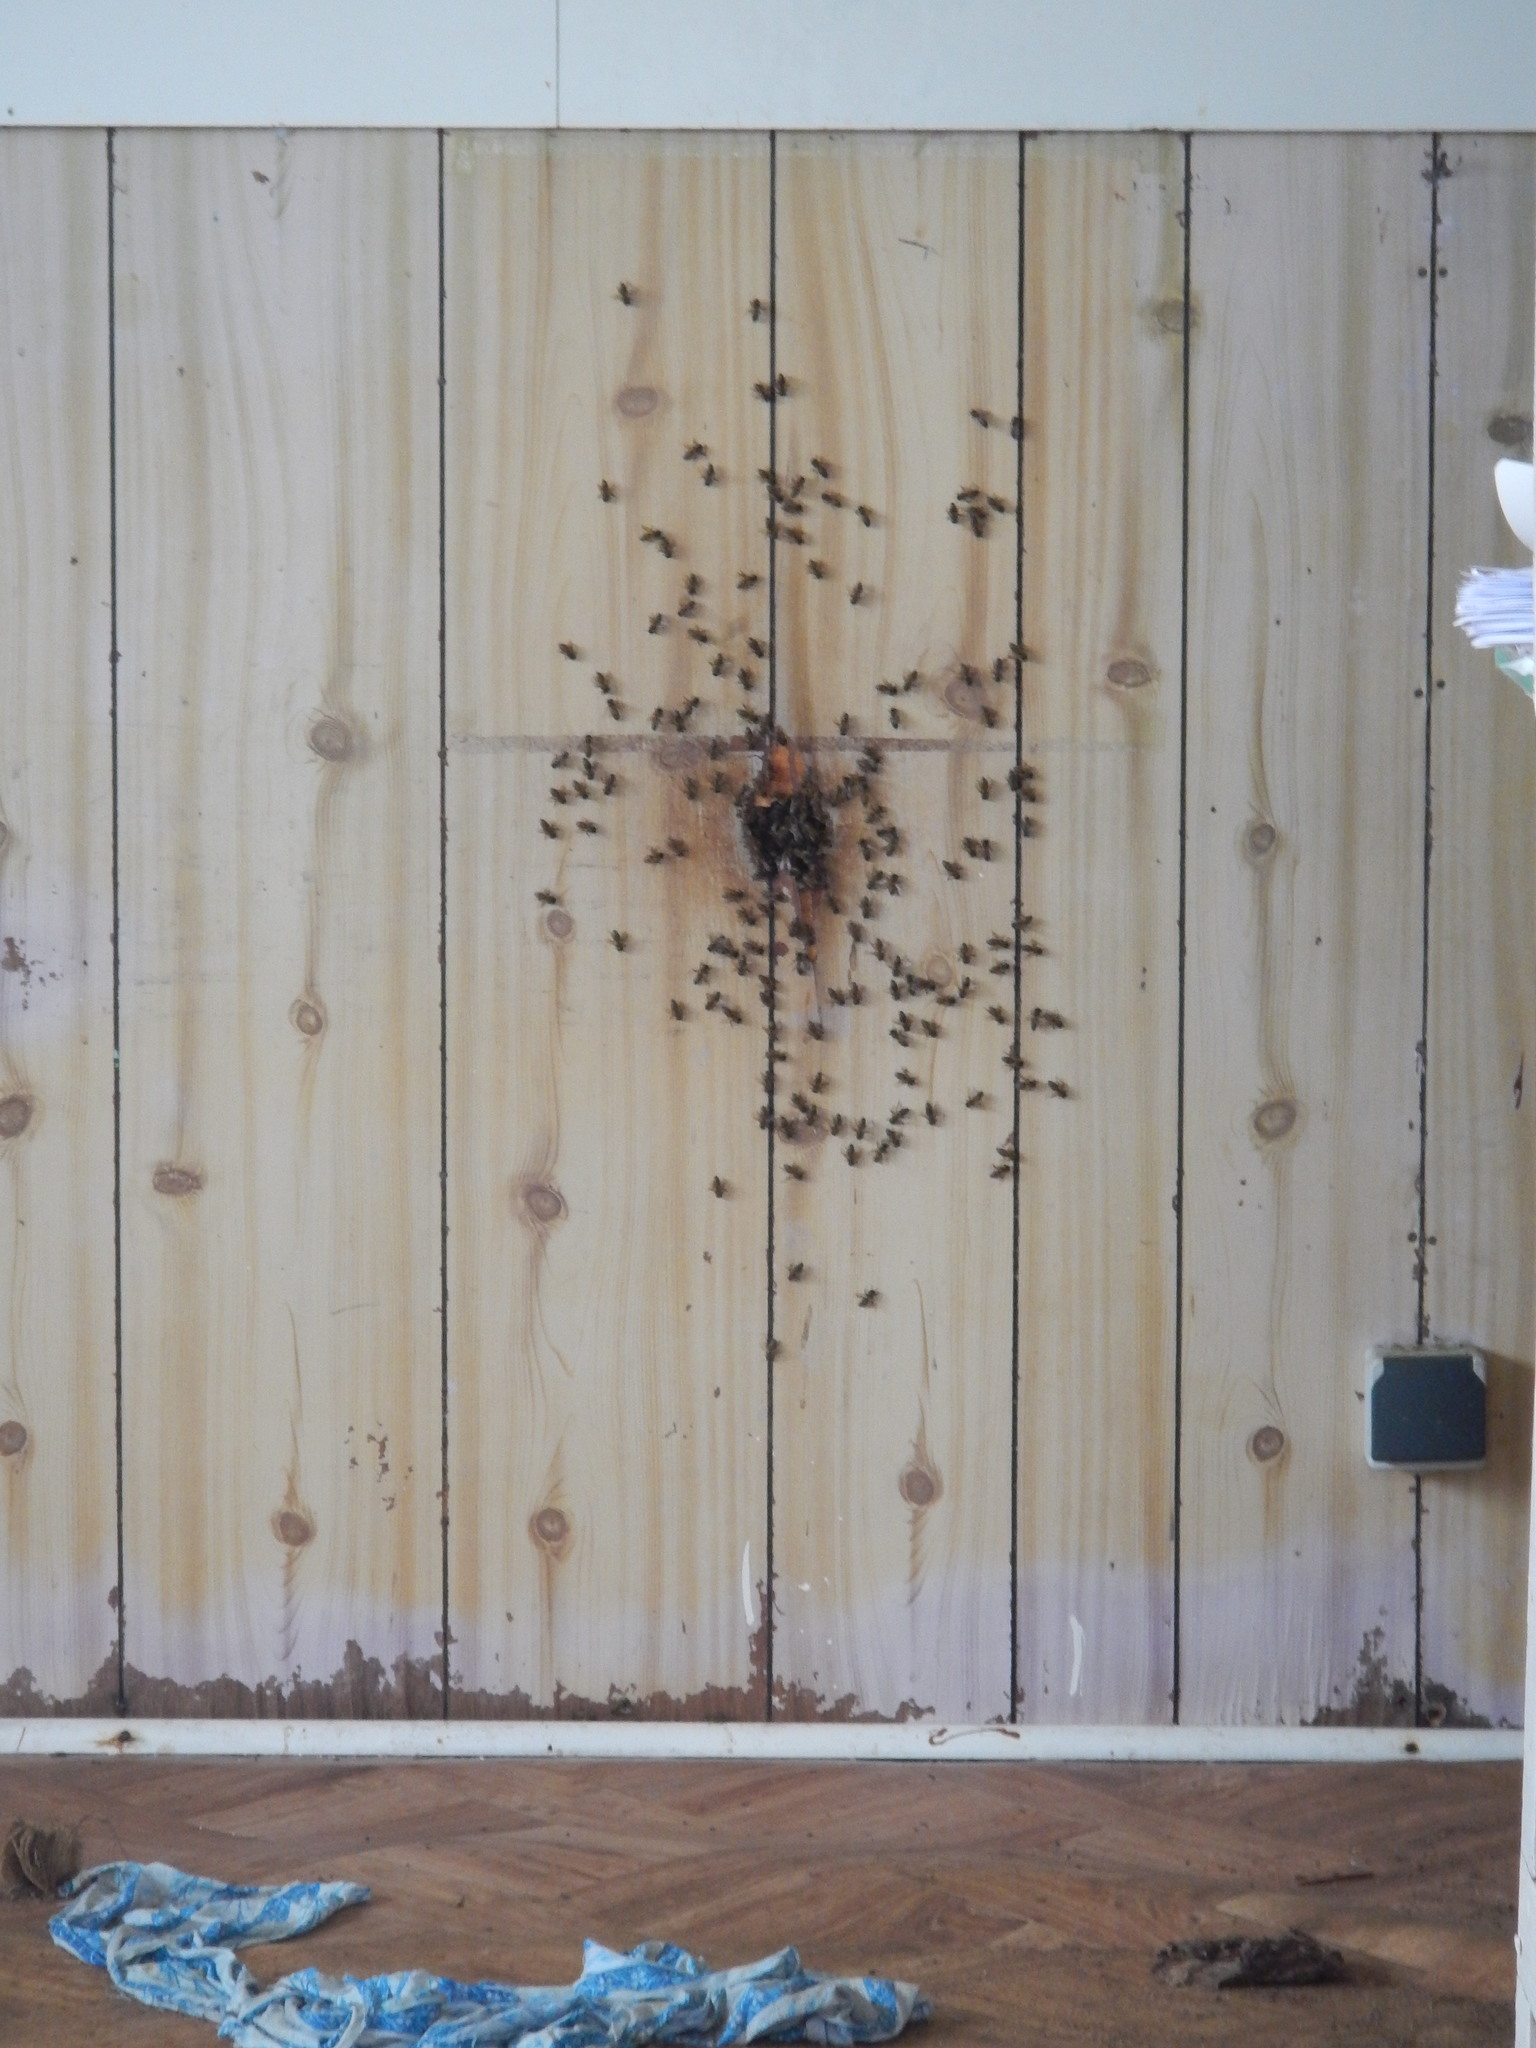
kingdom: Animalia
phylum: Arthropoda
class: Insecta
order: Hymenoptera
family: Apidae
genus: Apis
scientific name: Apis mellifera
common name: Honey bee
